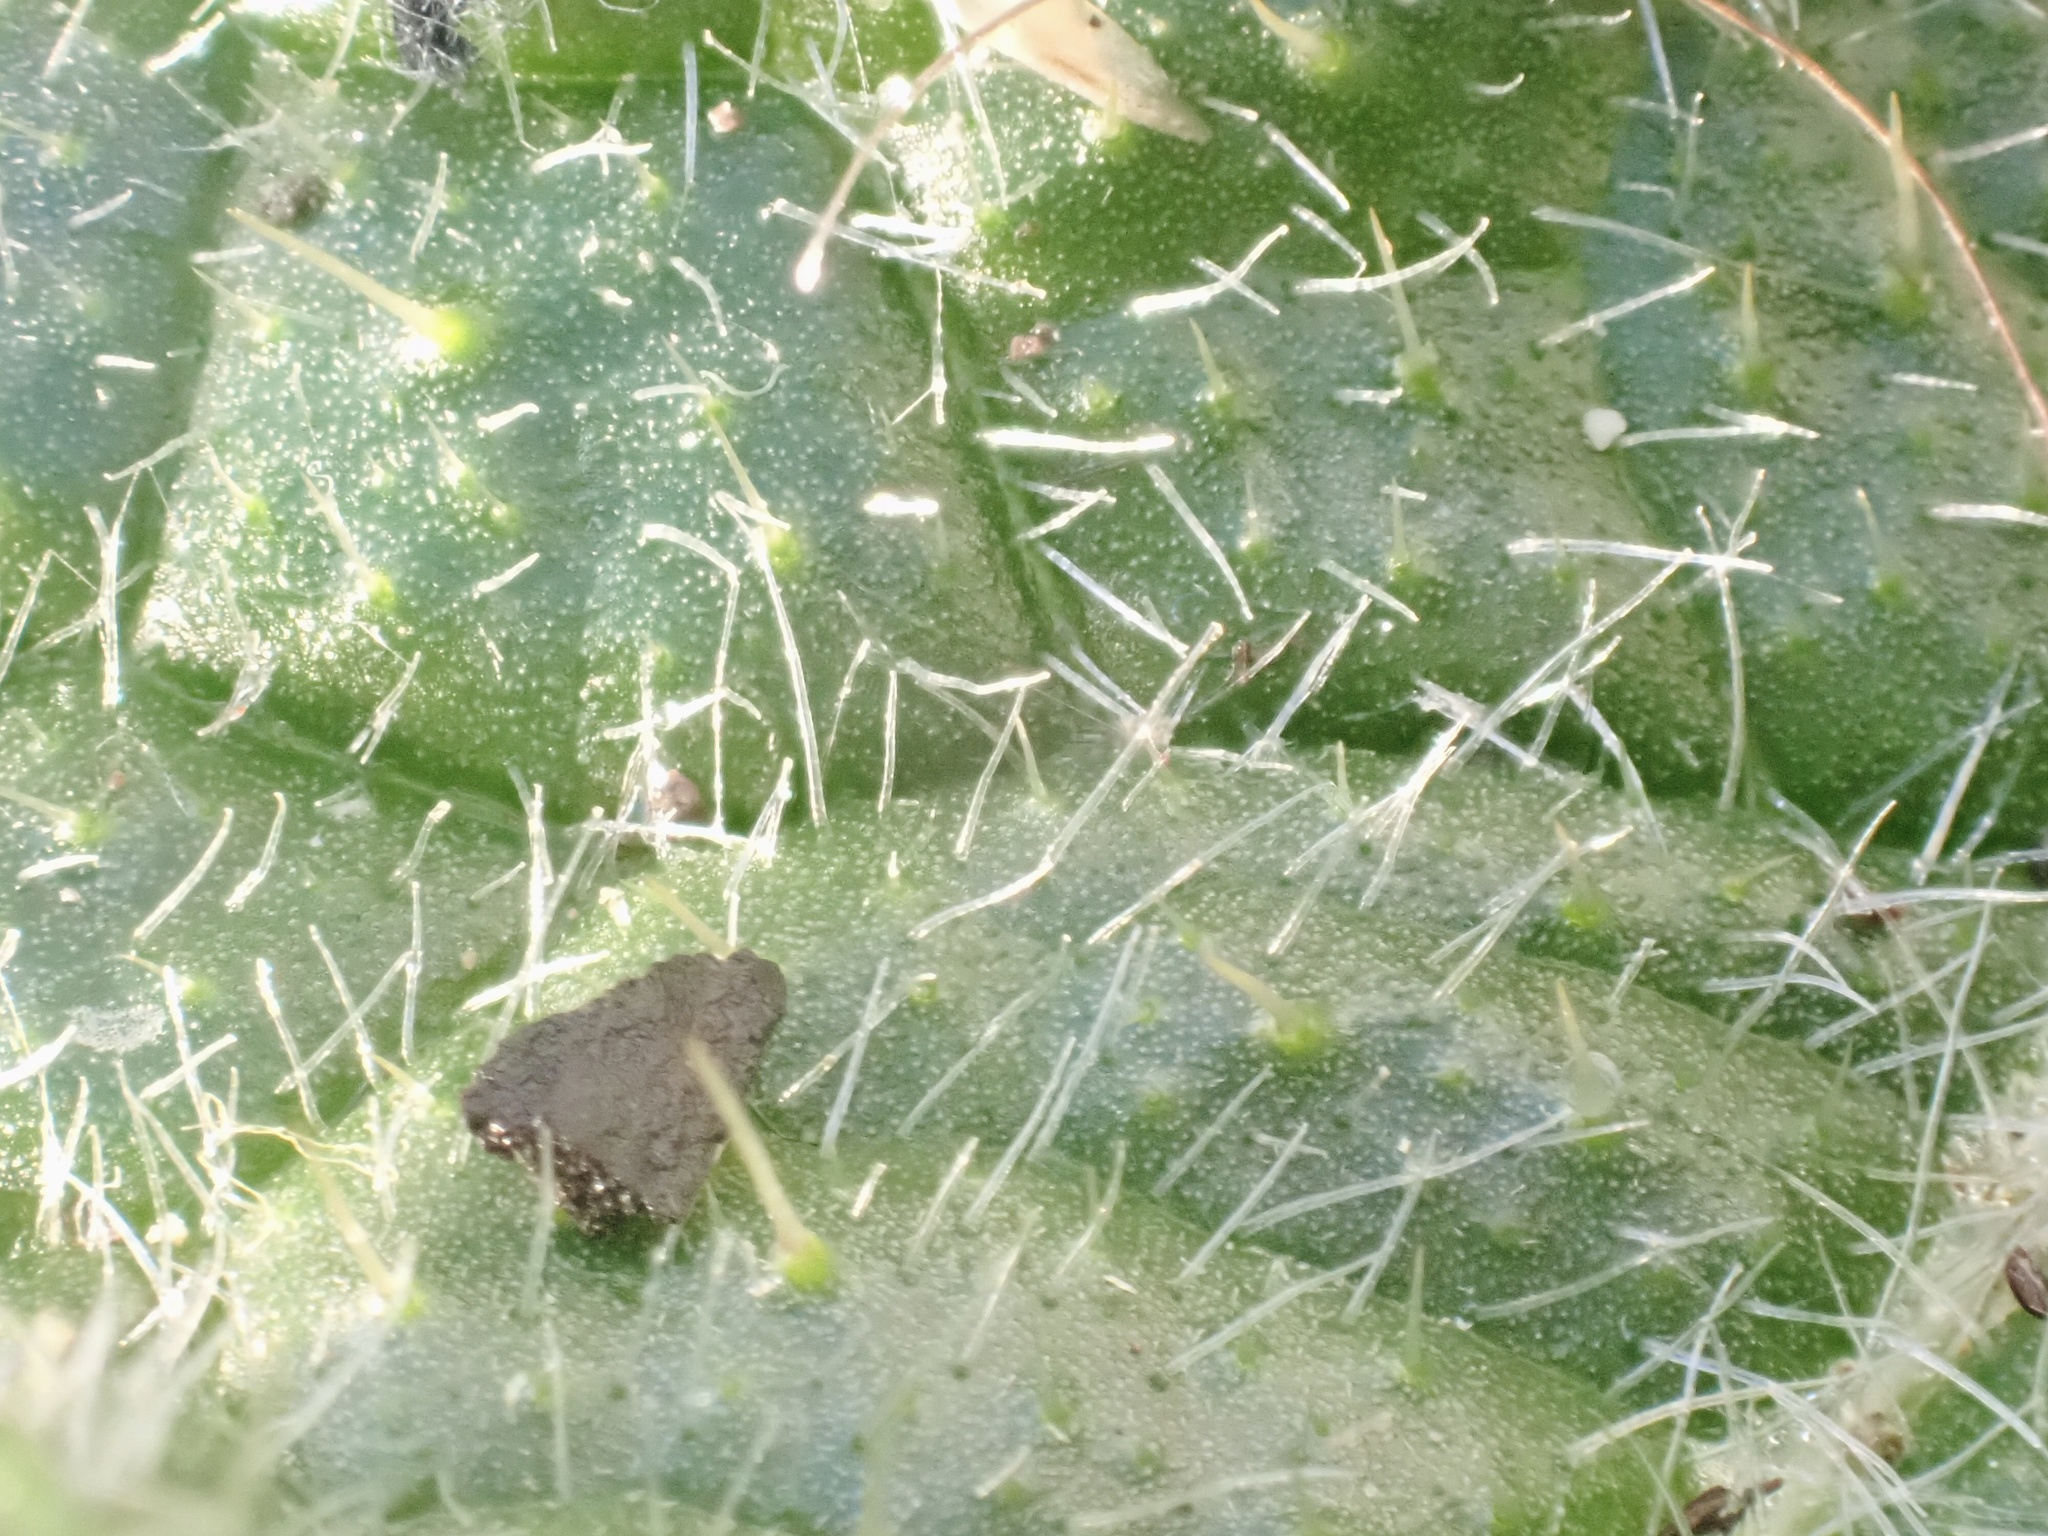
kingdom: Plantae
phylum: Tracheophyta
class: Magnoliopsida
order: Asterales
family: Asteraceae
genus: Cirsium
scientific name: Cirsium vulgare
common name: Bull thistle
